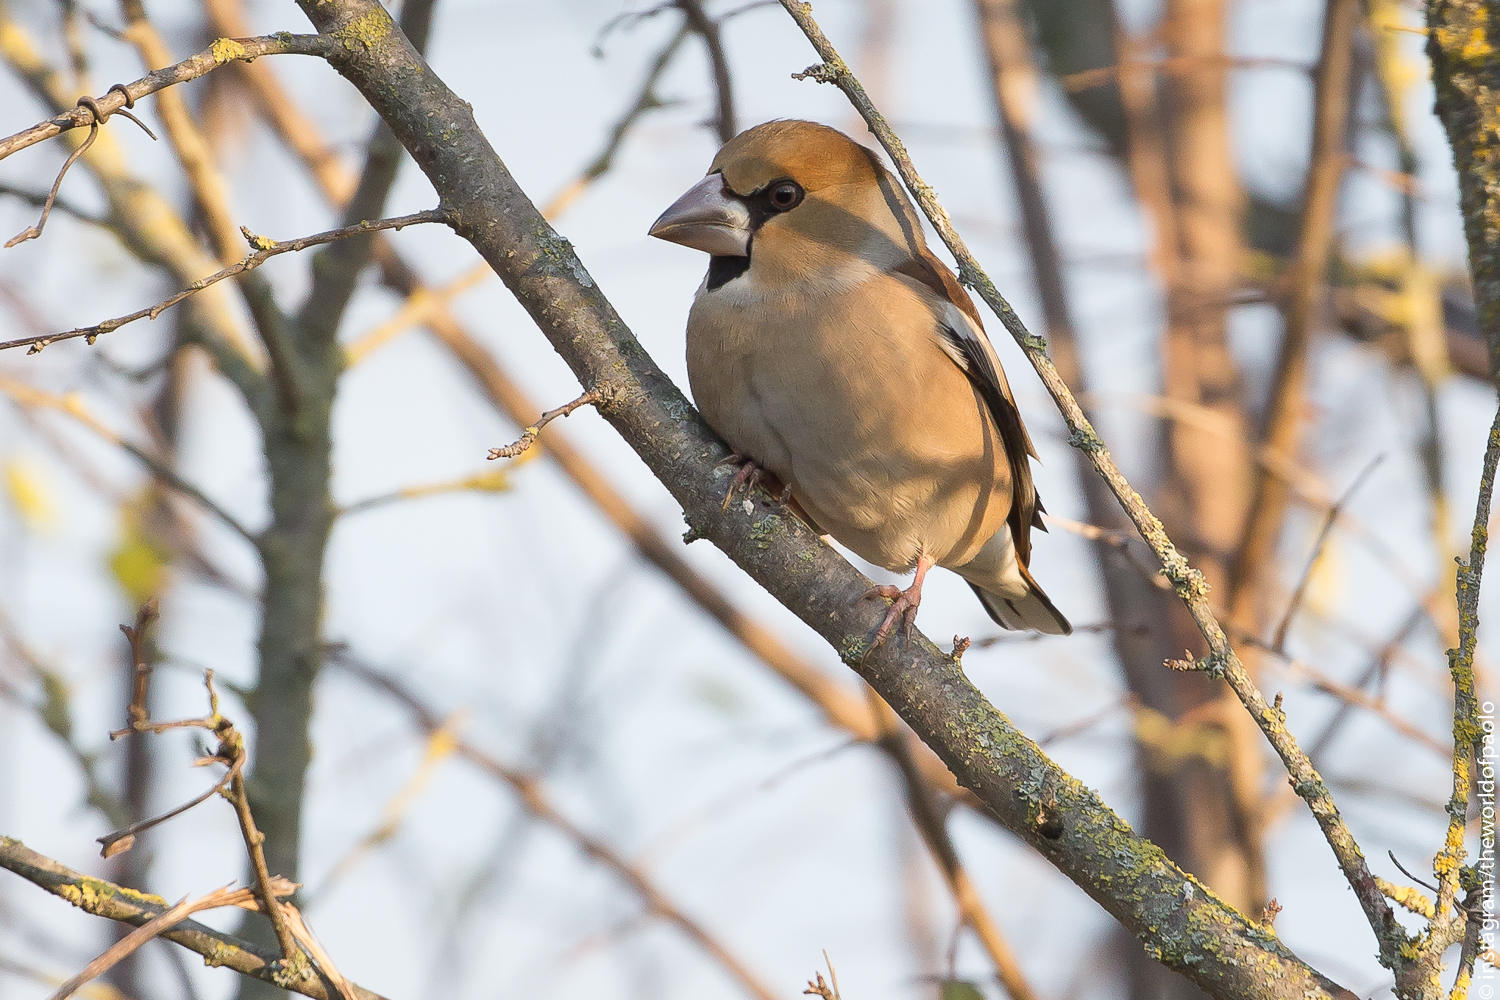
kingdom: Animalia
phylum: Chordata
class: Aves
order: Passeriformes
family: Fringillidae
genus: Coccothraustes
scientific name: Coccothraustes coccothraustes
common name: Hawfinch
